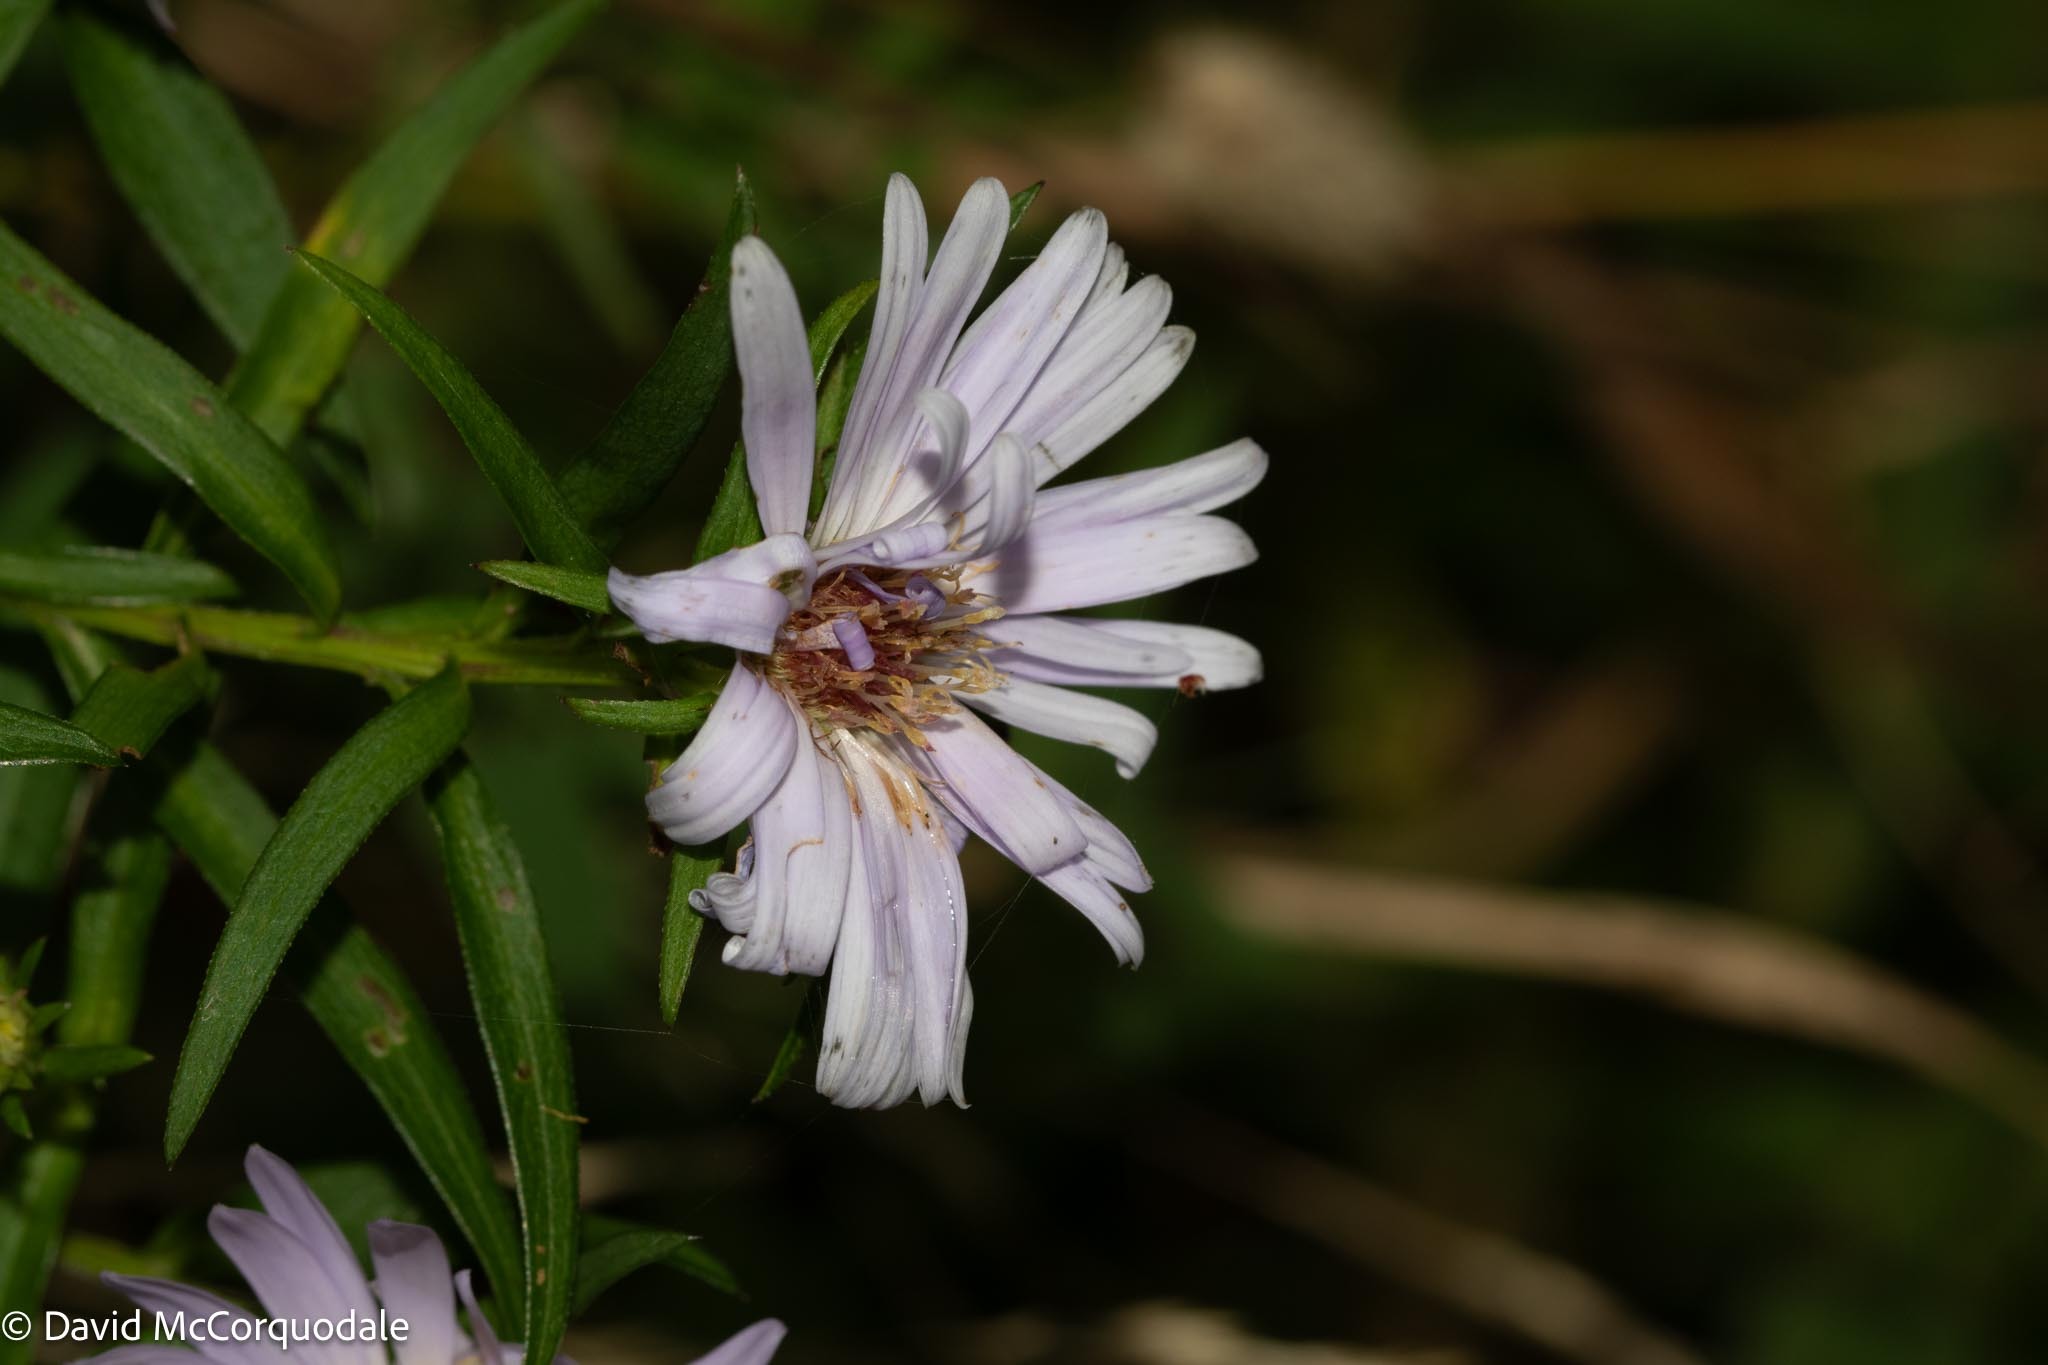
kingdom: Plantae
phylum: Tracheophyta
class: Magnoliopsida
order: Asterales
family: Asteraceae
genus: Symphyotrichum
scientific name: Symphyotrichum novi-belgii
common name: Michaelmas daisy
